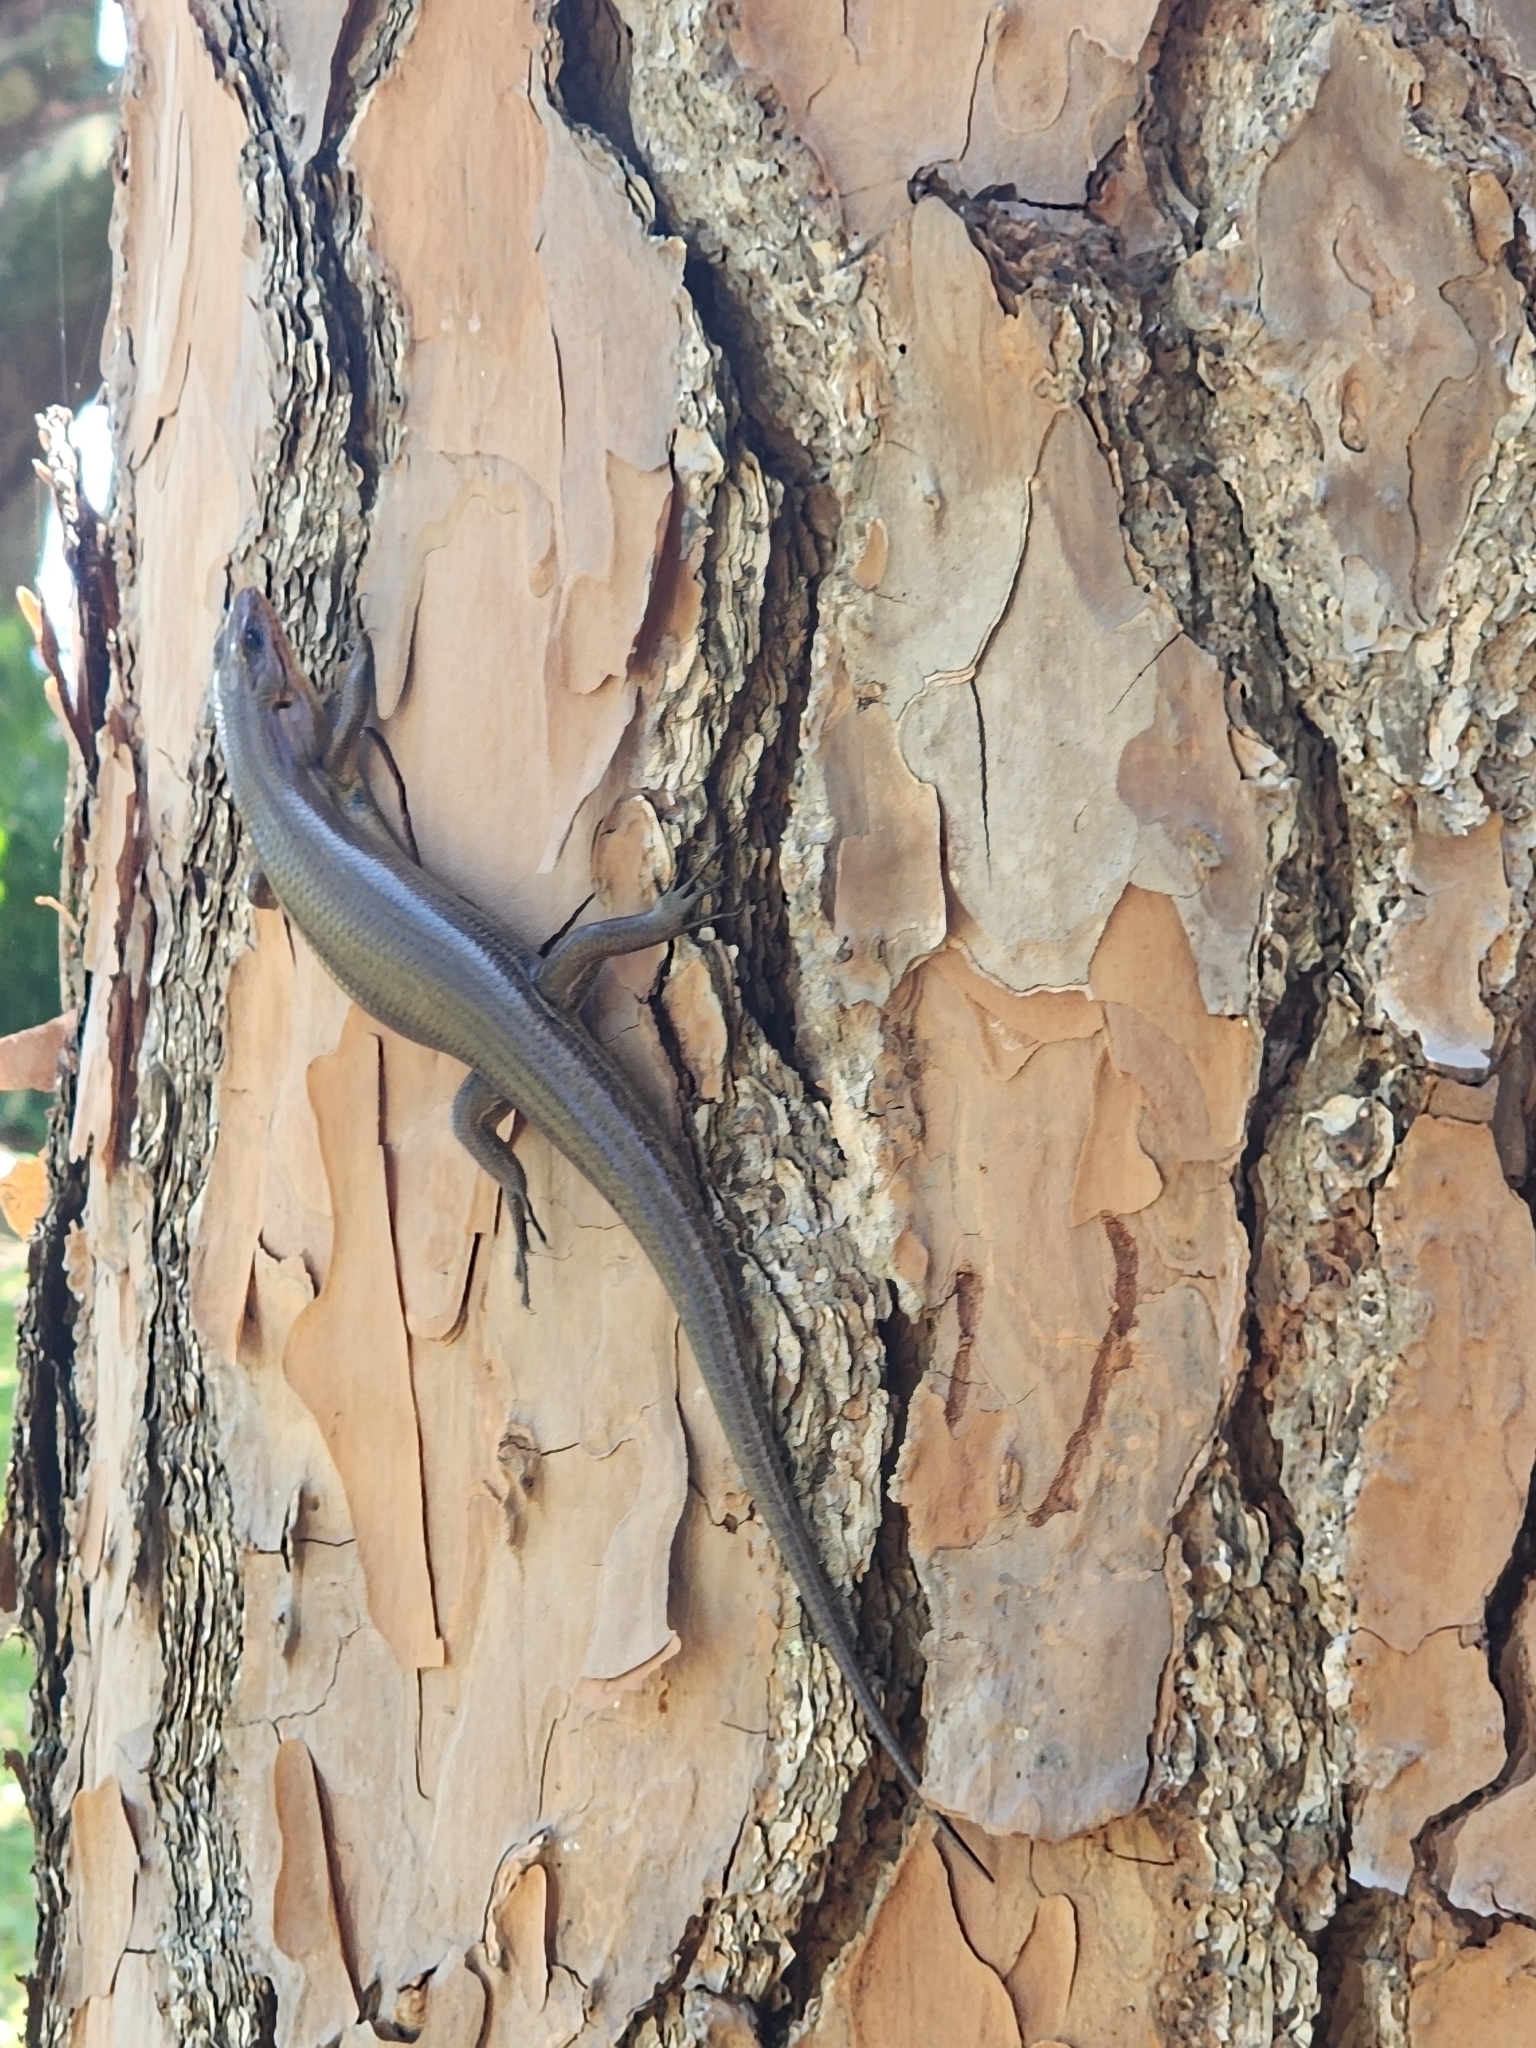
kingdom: Animalia
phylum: Chordata
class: Squamata
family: Scincidae
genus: Plestiodon
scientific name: Plestiodon laticeps
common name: Broadhead skink
